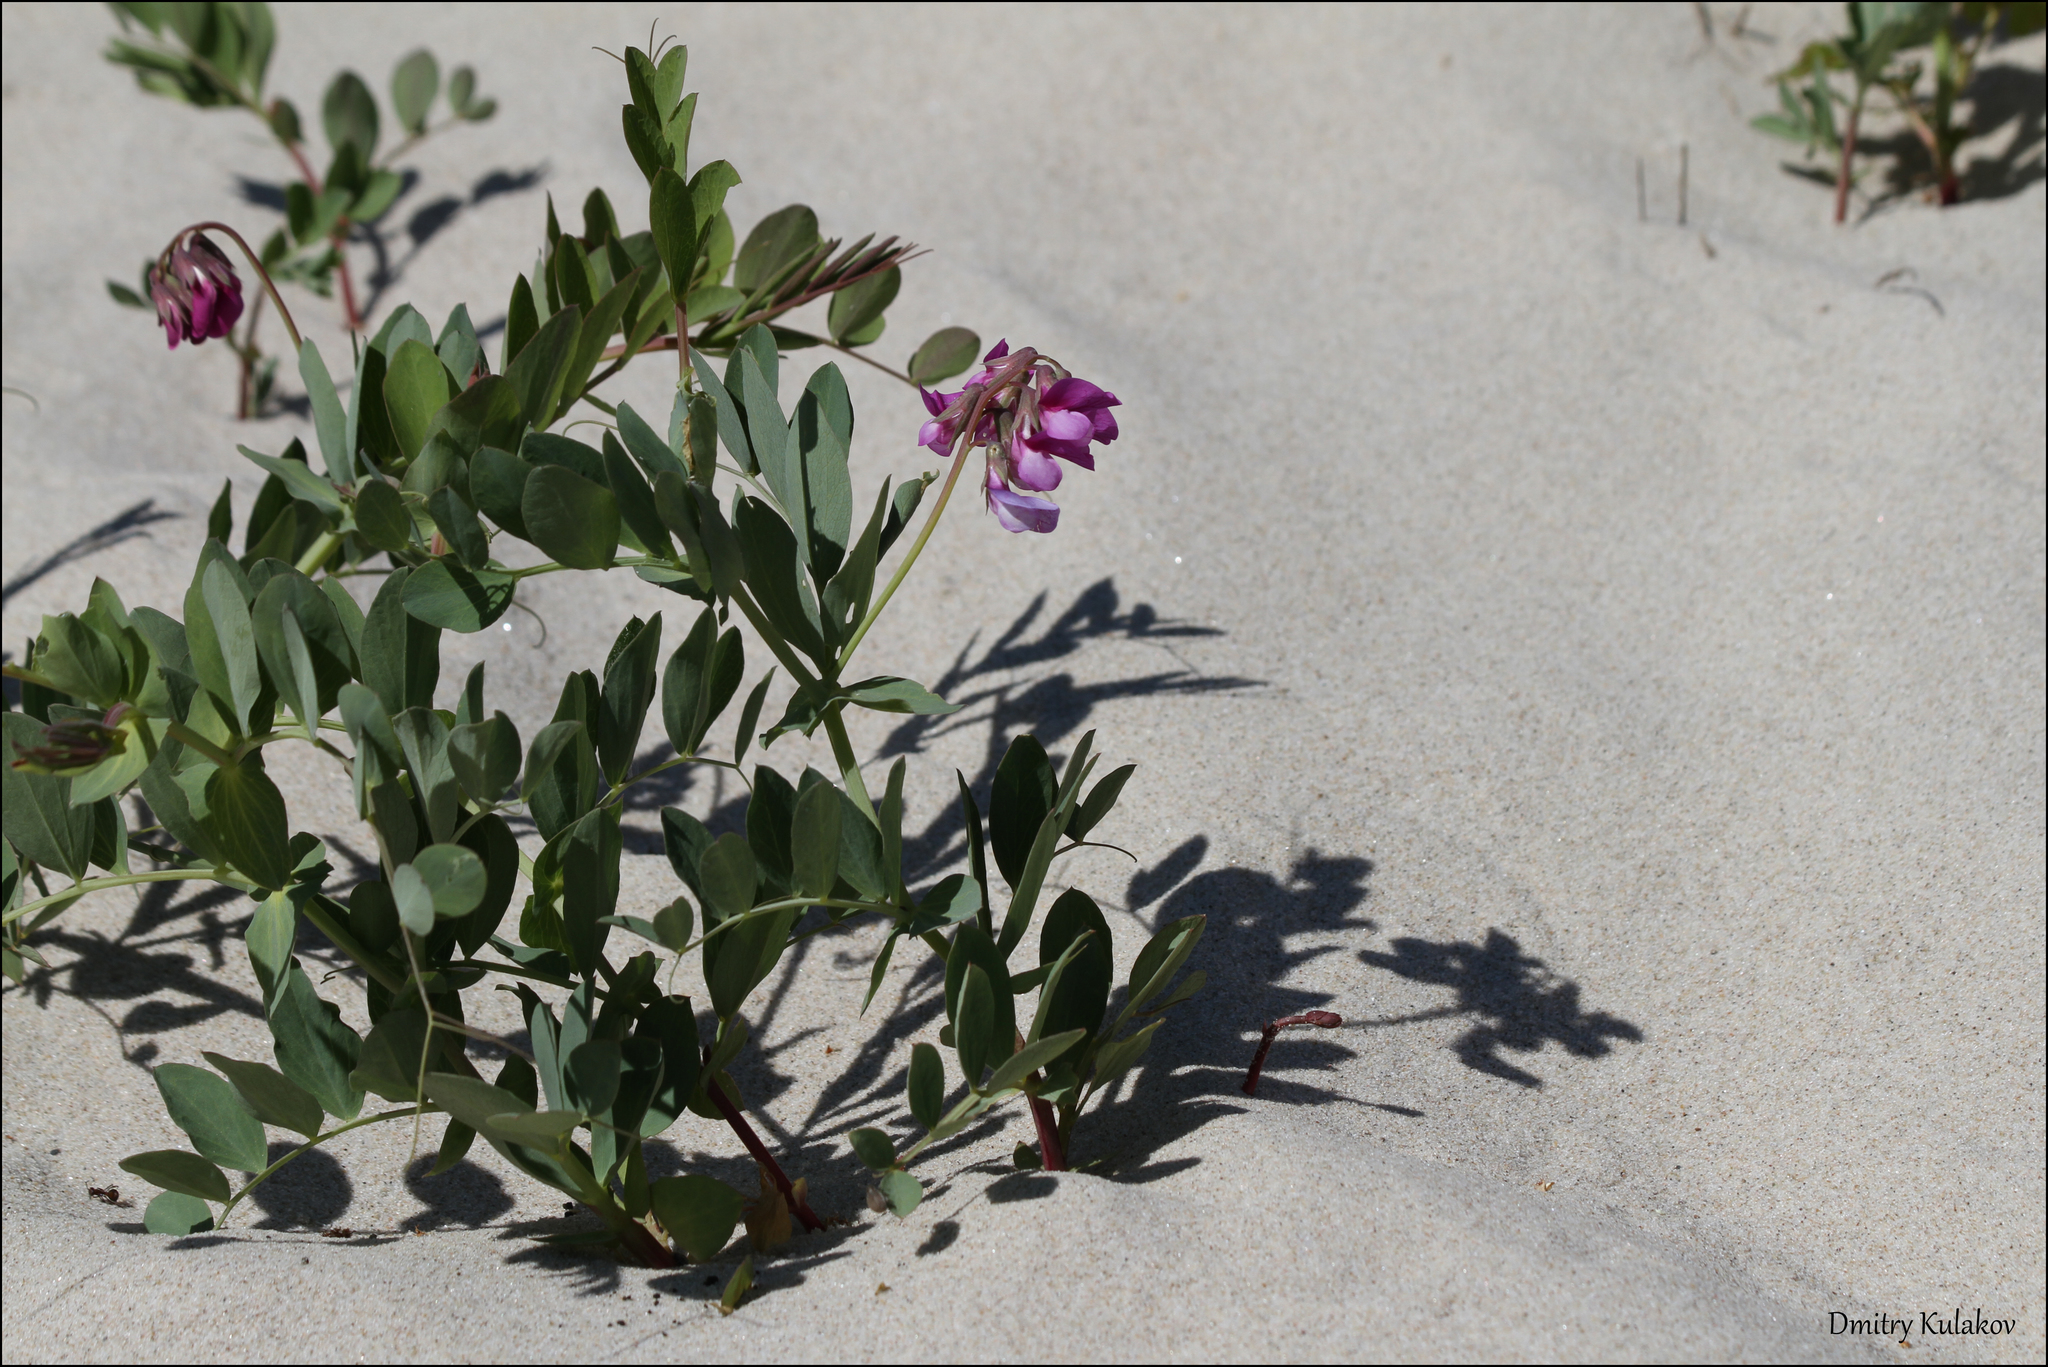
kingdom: Plantae
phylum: Tracheophyta
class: Magnoliopsida
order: Fabales
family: Fabaceae
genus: Lathyrus
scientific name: Lathyrus japonicus
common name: Sea pea
